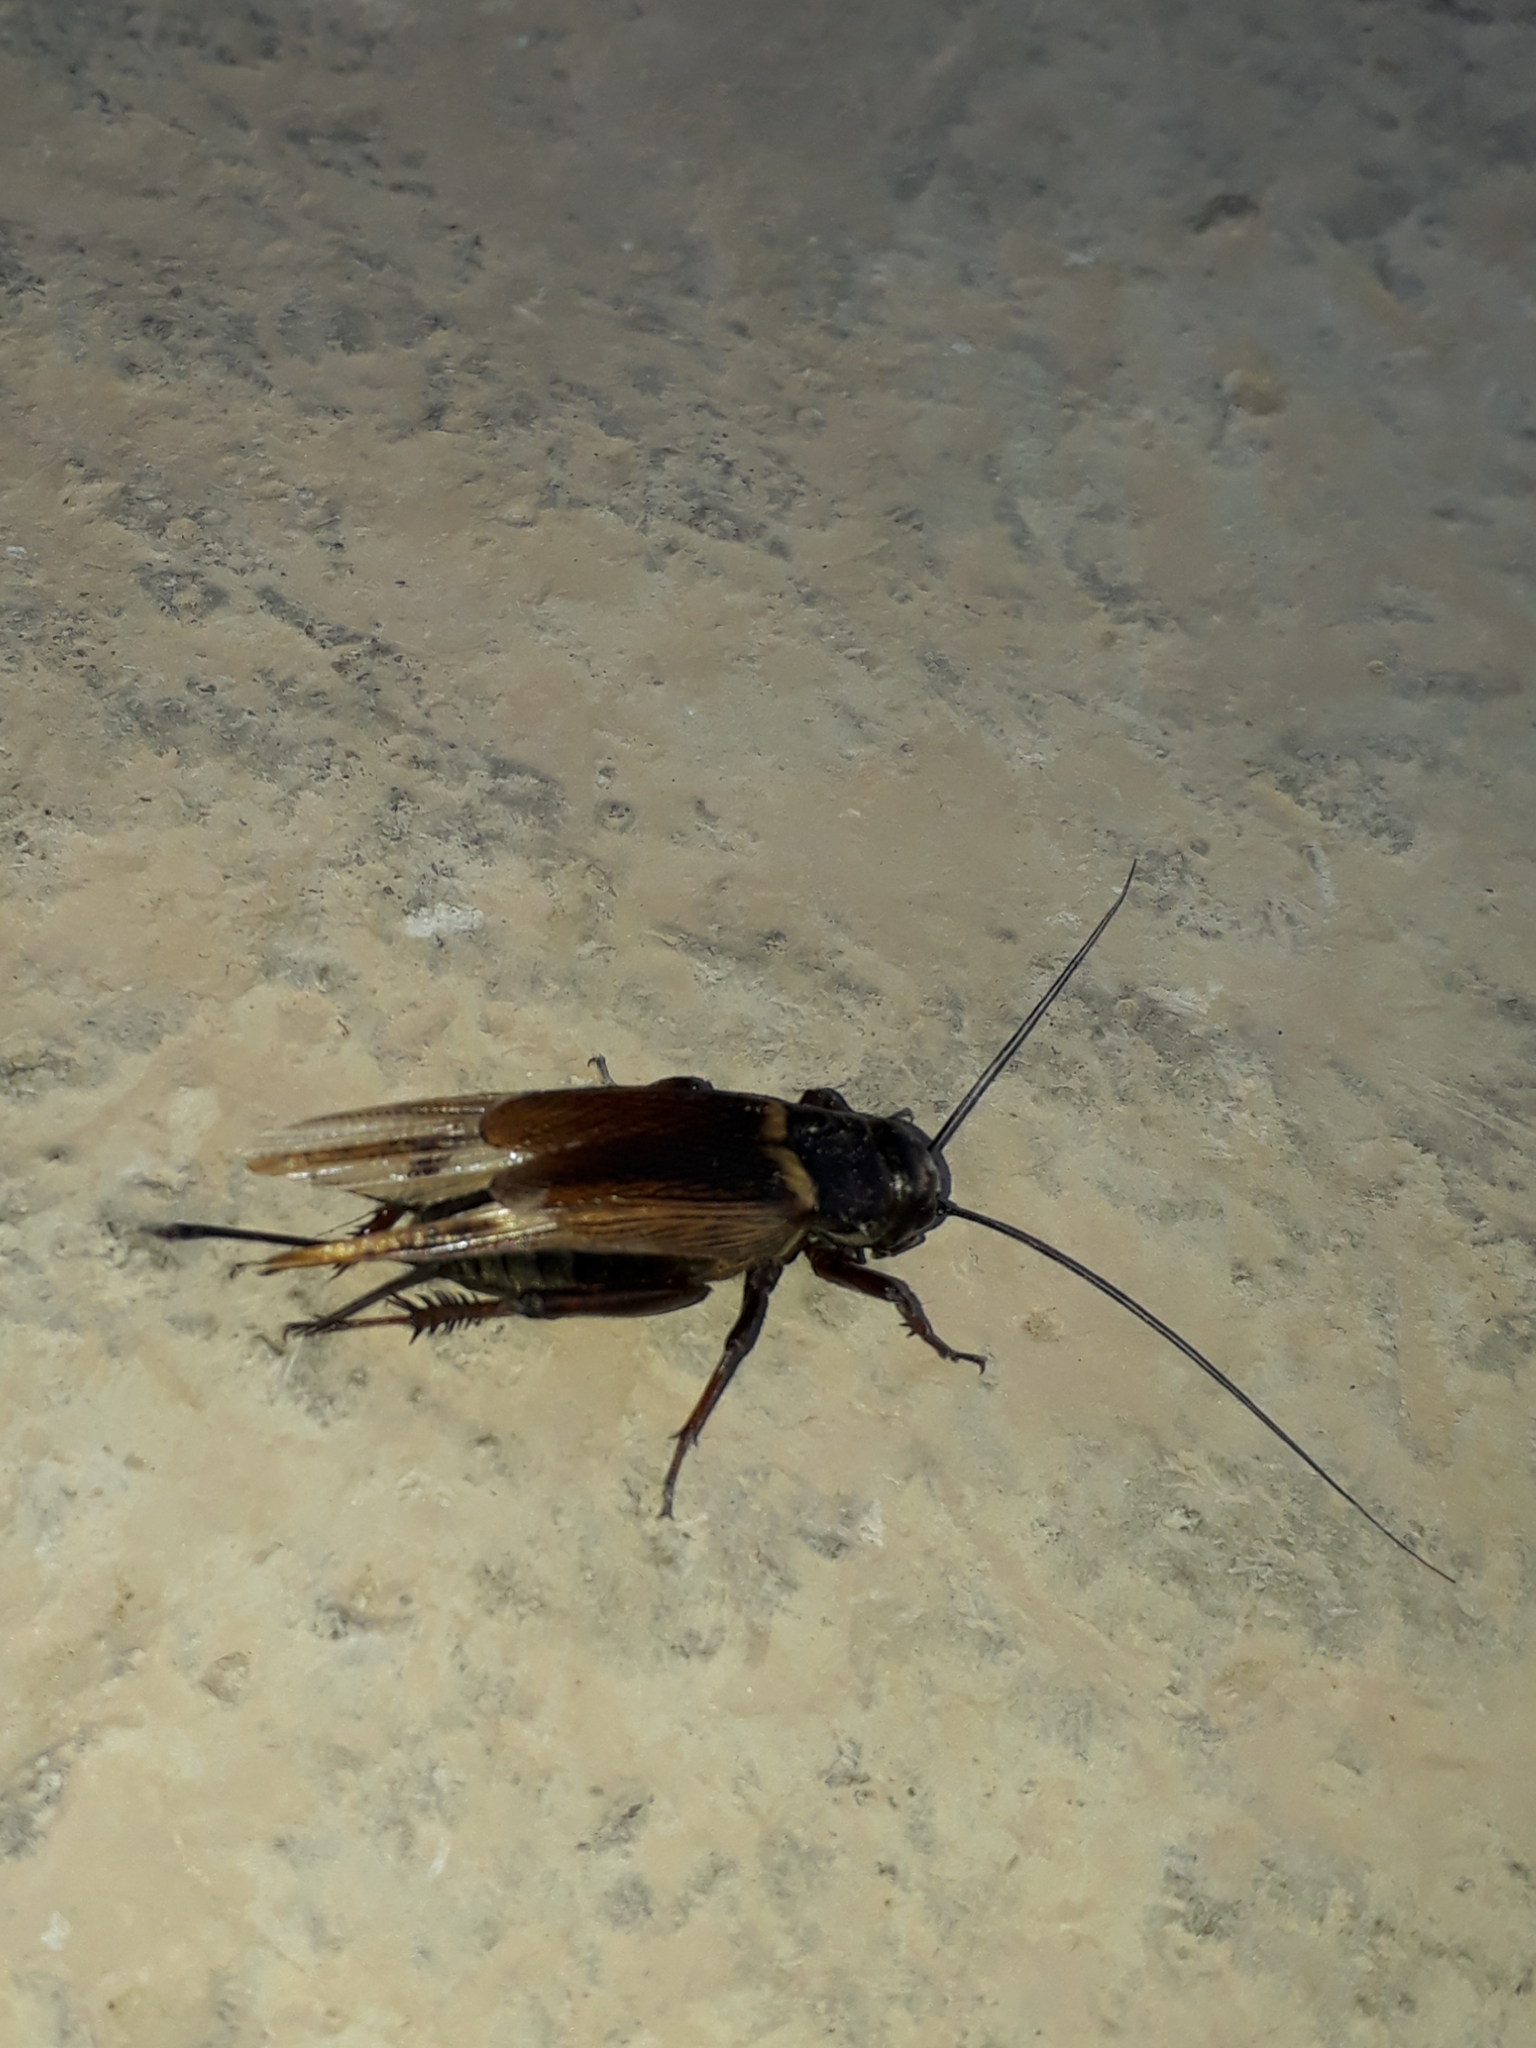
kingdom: Animalia
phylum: Arthropoda
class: Insecta
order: Orthoptera
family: Gryllidae
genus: Gryllus
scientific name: Gryllus bimaculatus
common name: Two-spotted cricket
